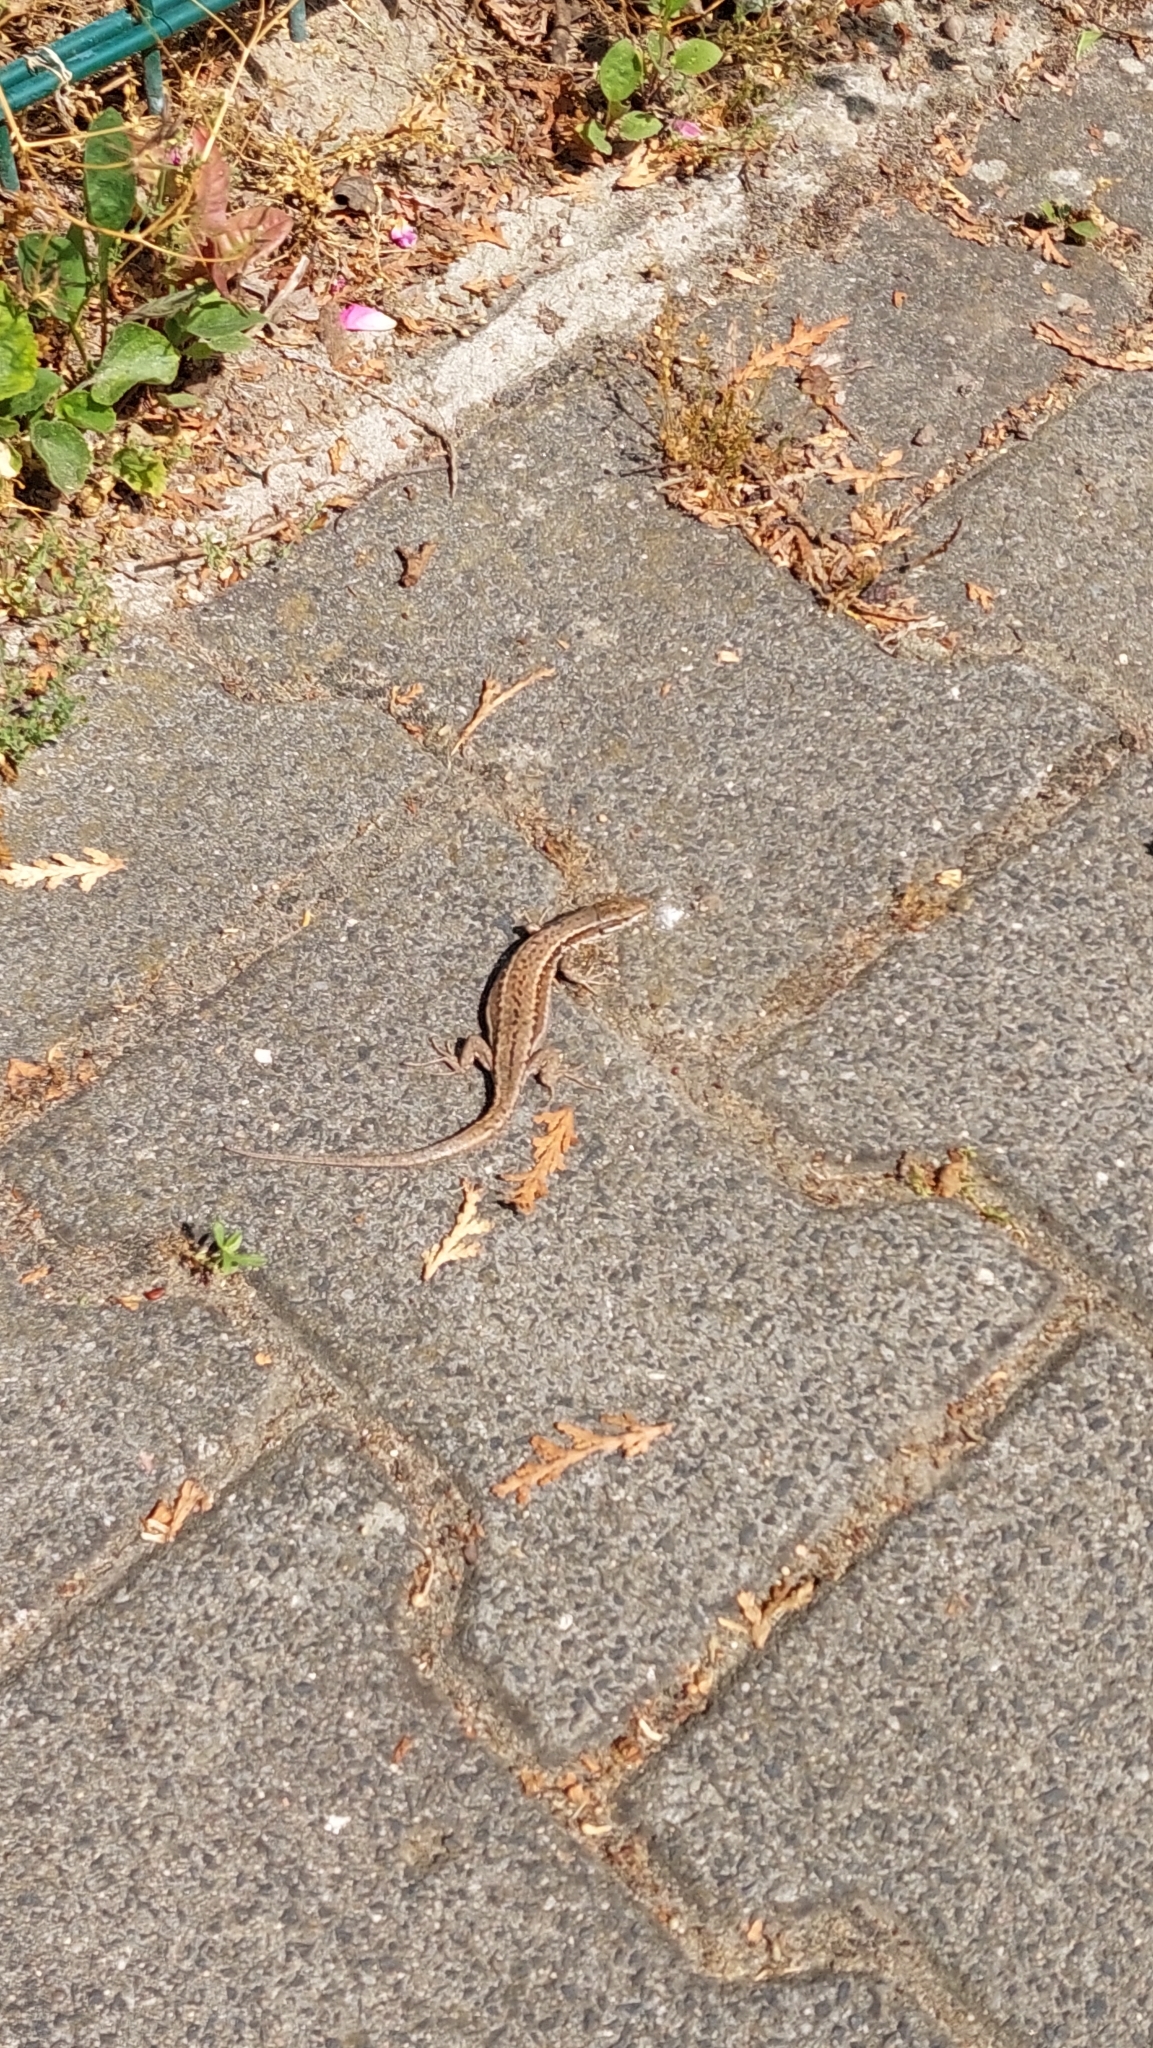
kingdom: Animalia
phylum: Chordata
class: Squamata
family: Lacertidae
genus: Podarcis
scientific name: Podarcis muralis
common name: Common wall lizard
